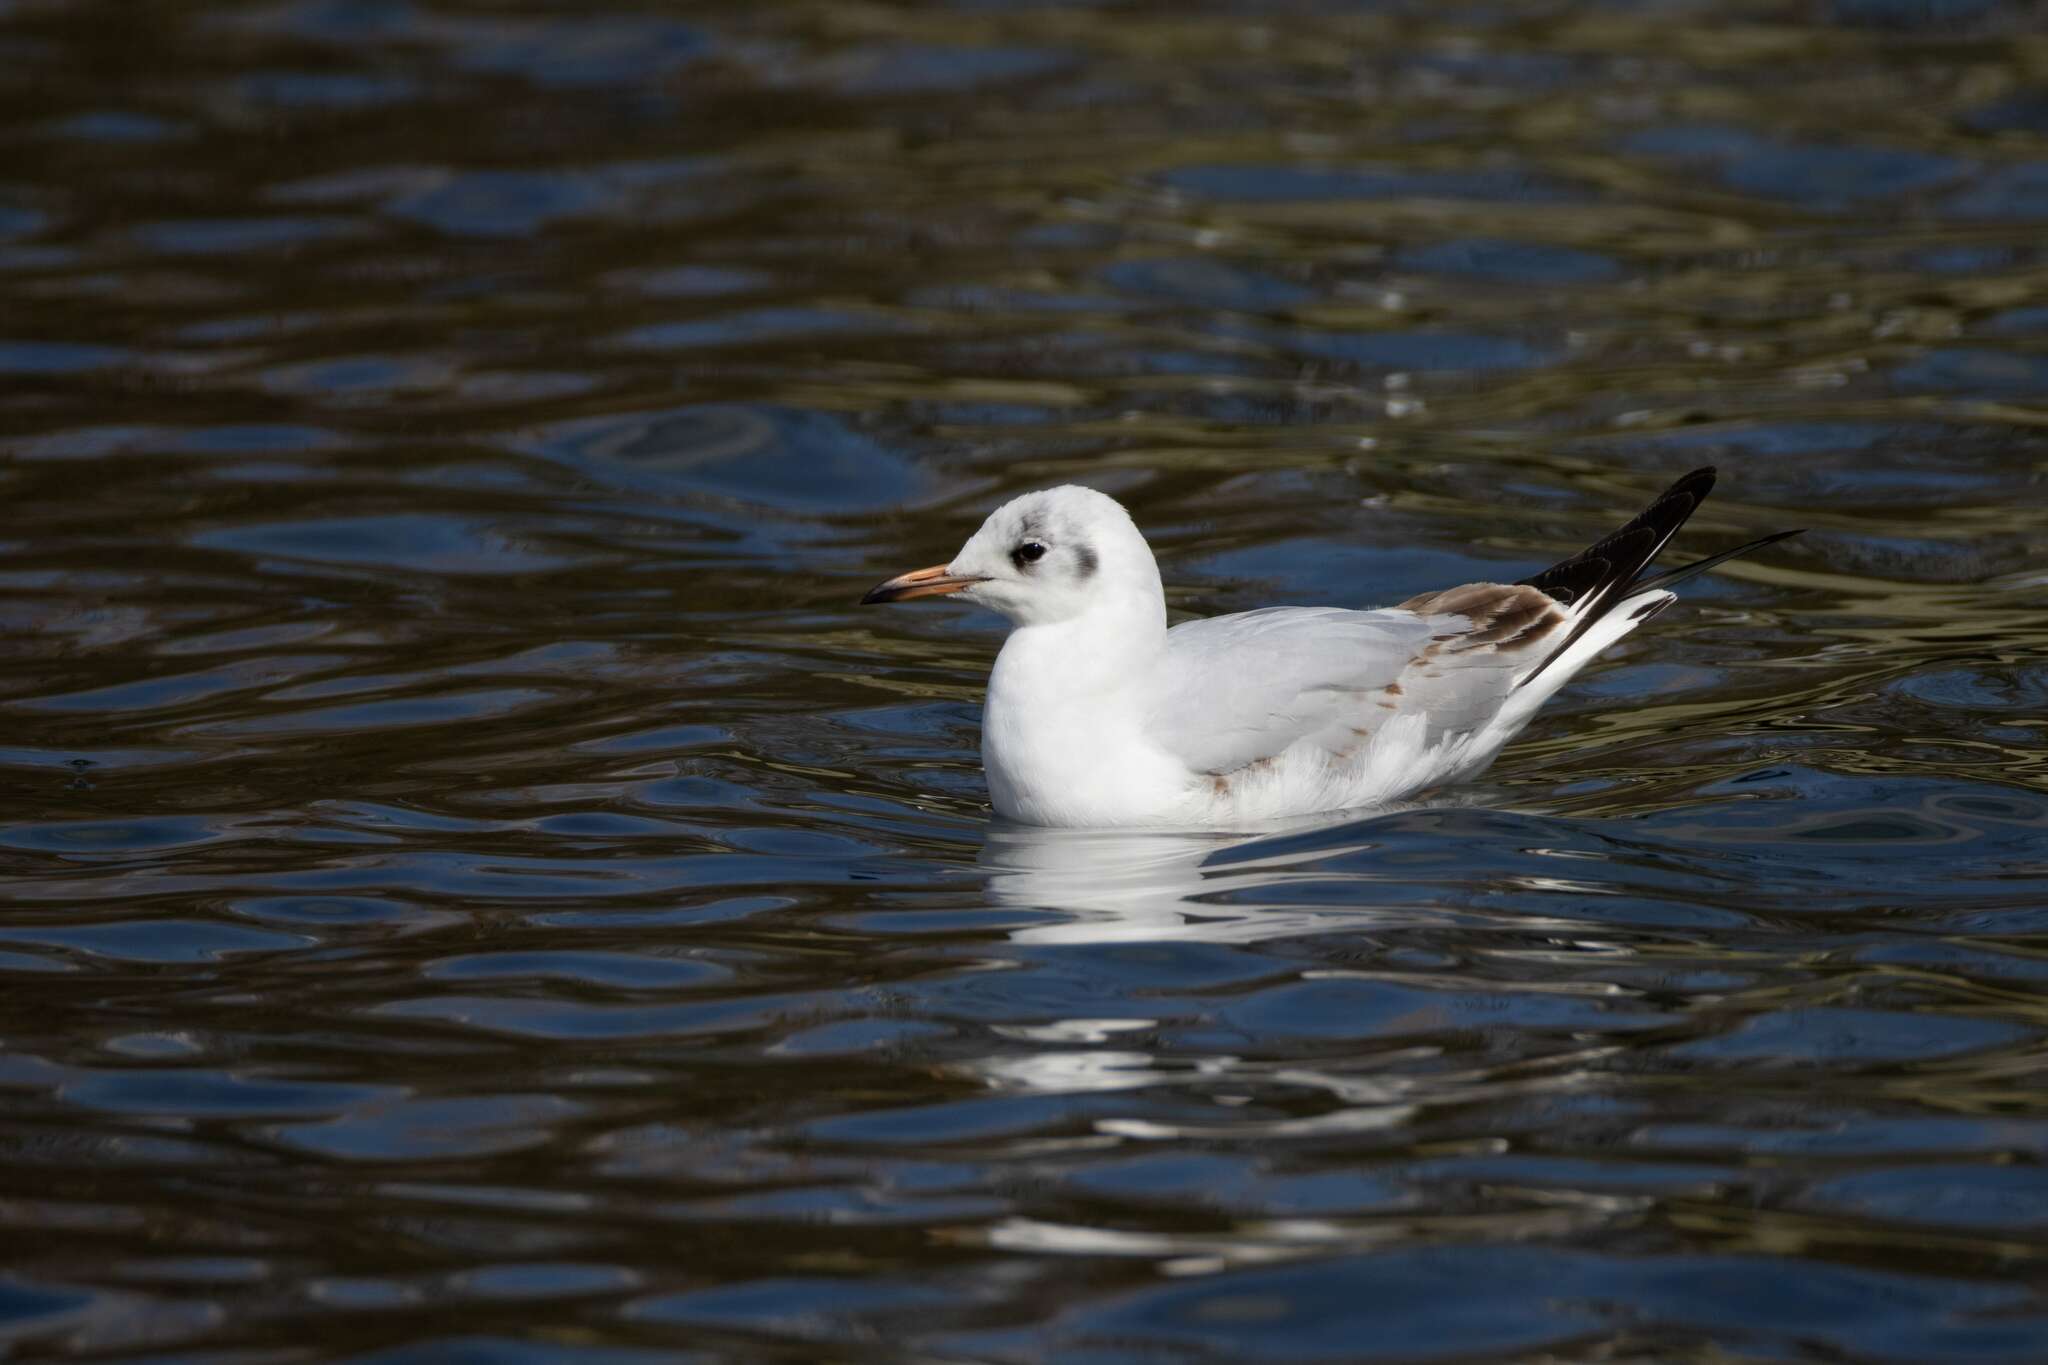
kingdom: Animalia
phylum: Chordata
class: Aves
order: Charadriiformes
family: Laridae
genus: Chroicocephalus
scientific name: Chroicocephalus ridibundus
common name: Black-headed gull
